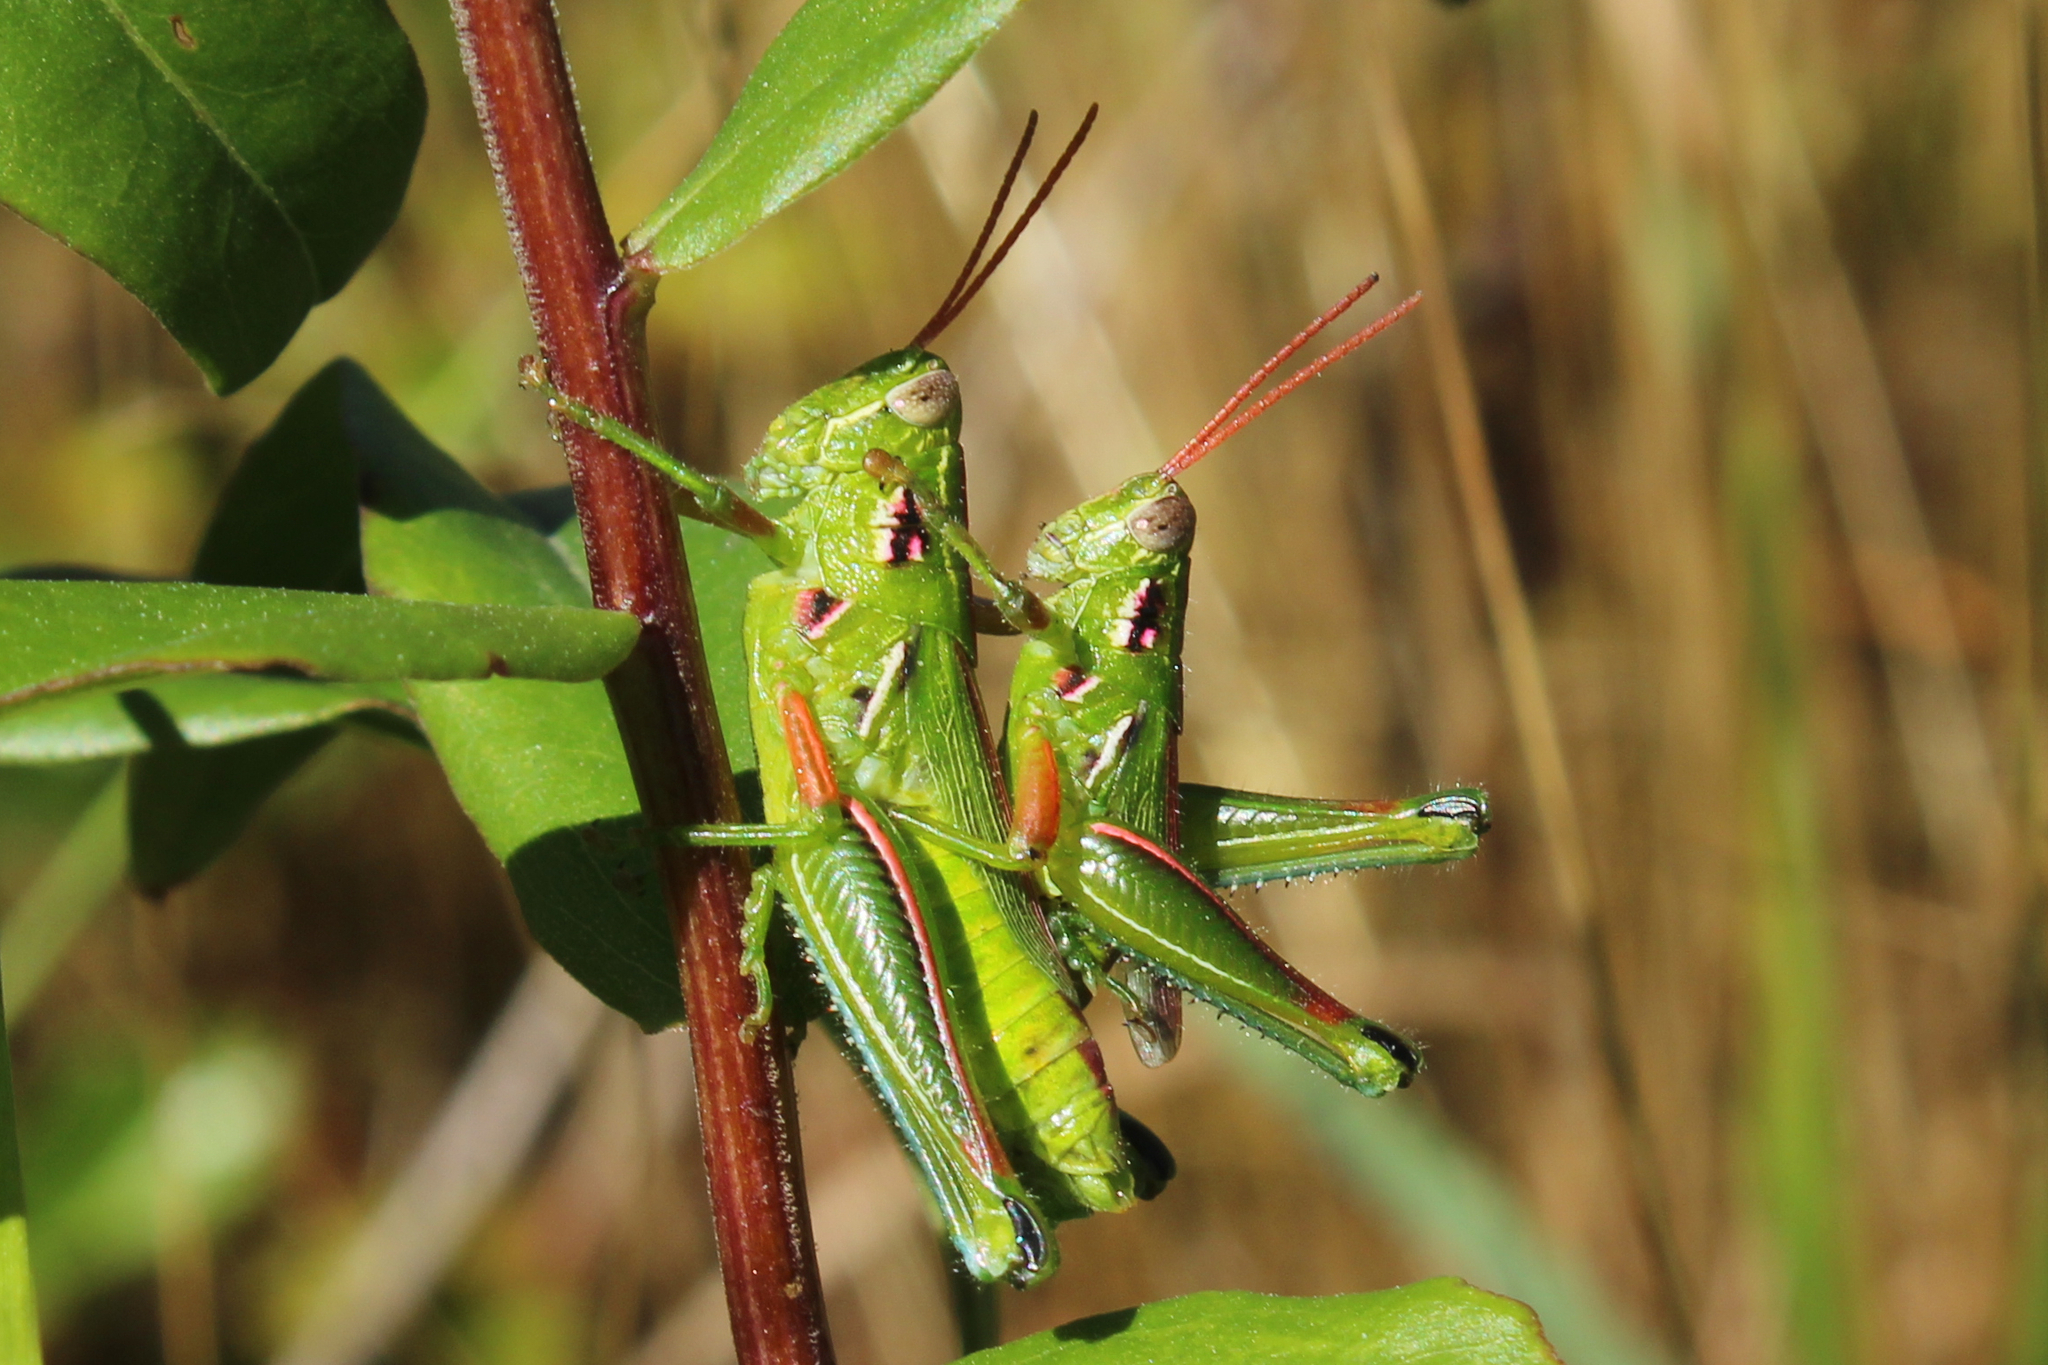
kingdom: Animalia
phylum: Arthropoda
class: Insecta
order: Orthoptera
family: Acrididae
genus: Hesperotettix
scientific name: Hesperotettix viridis
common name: Meadow purple-striped grasshopper
